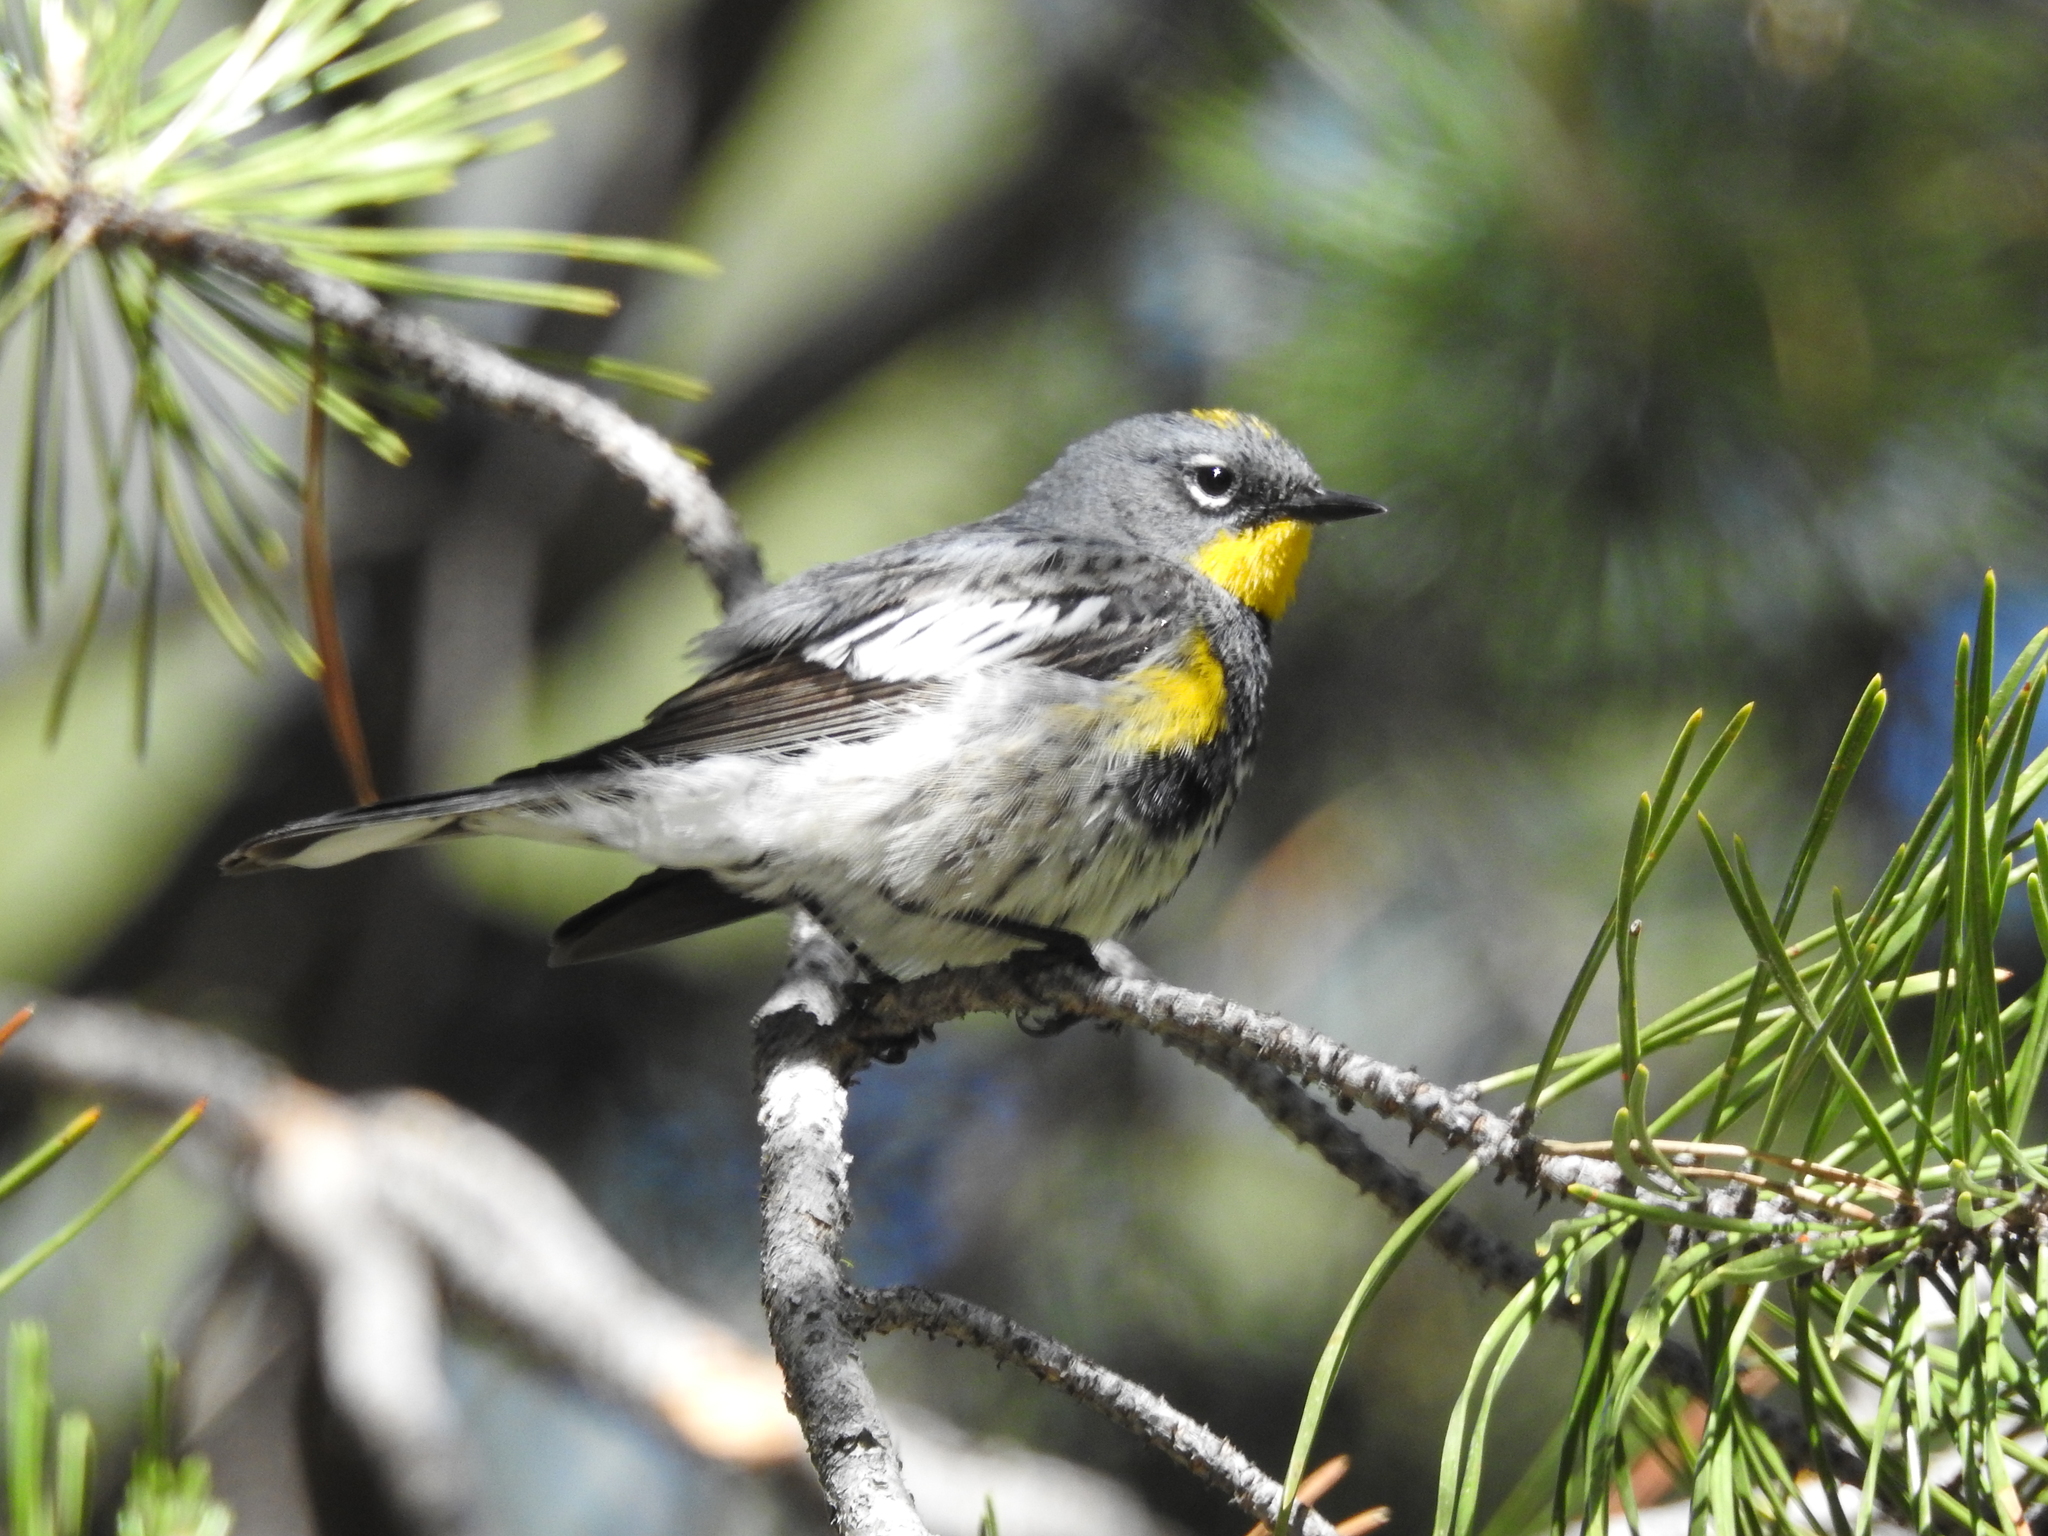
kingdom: Animalia
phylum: Chordata
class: Aves
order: Passeriformes
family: Parulidae
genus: Setophaga
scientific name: Setophaga coronata
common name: Myrtle warbler
